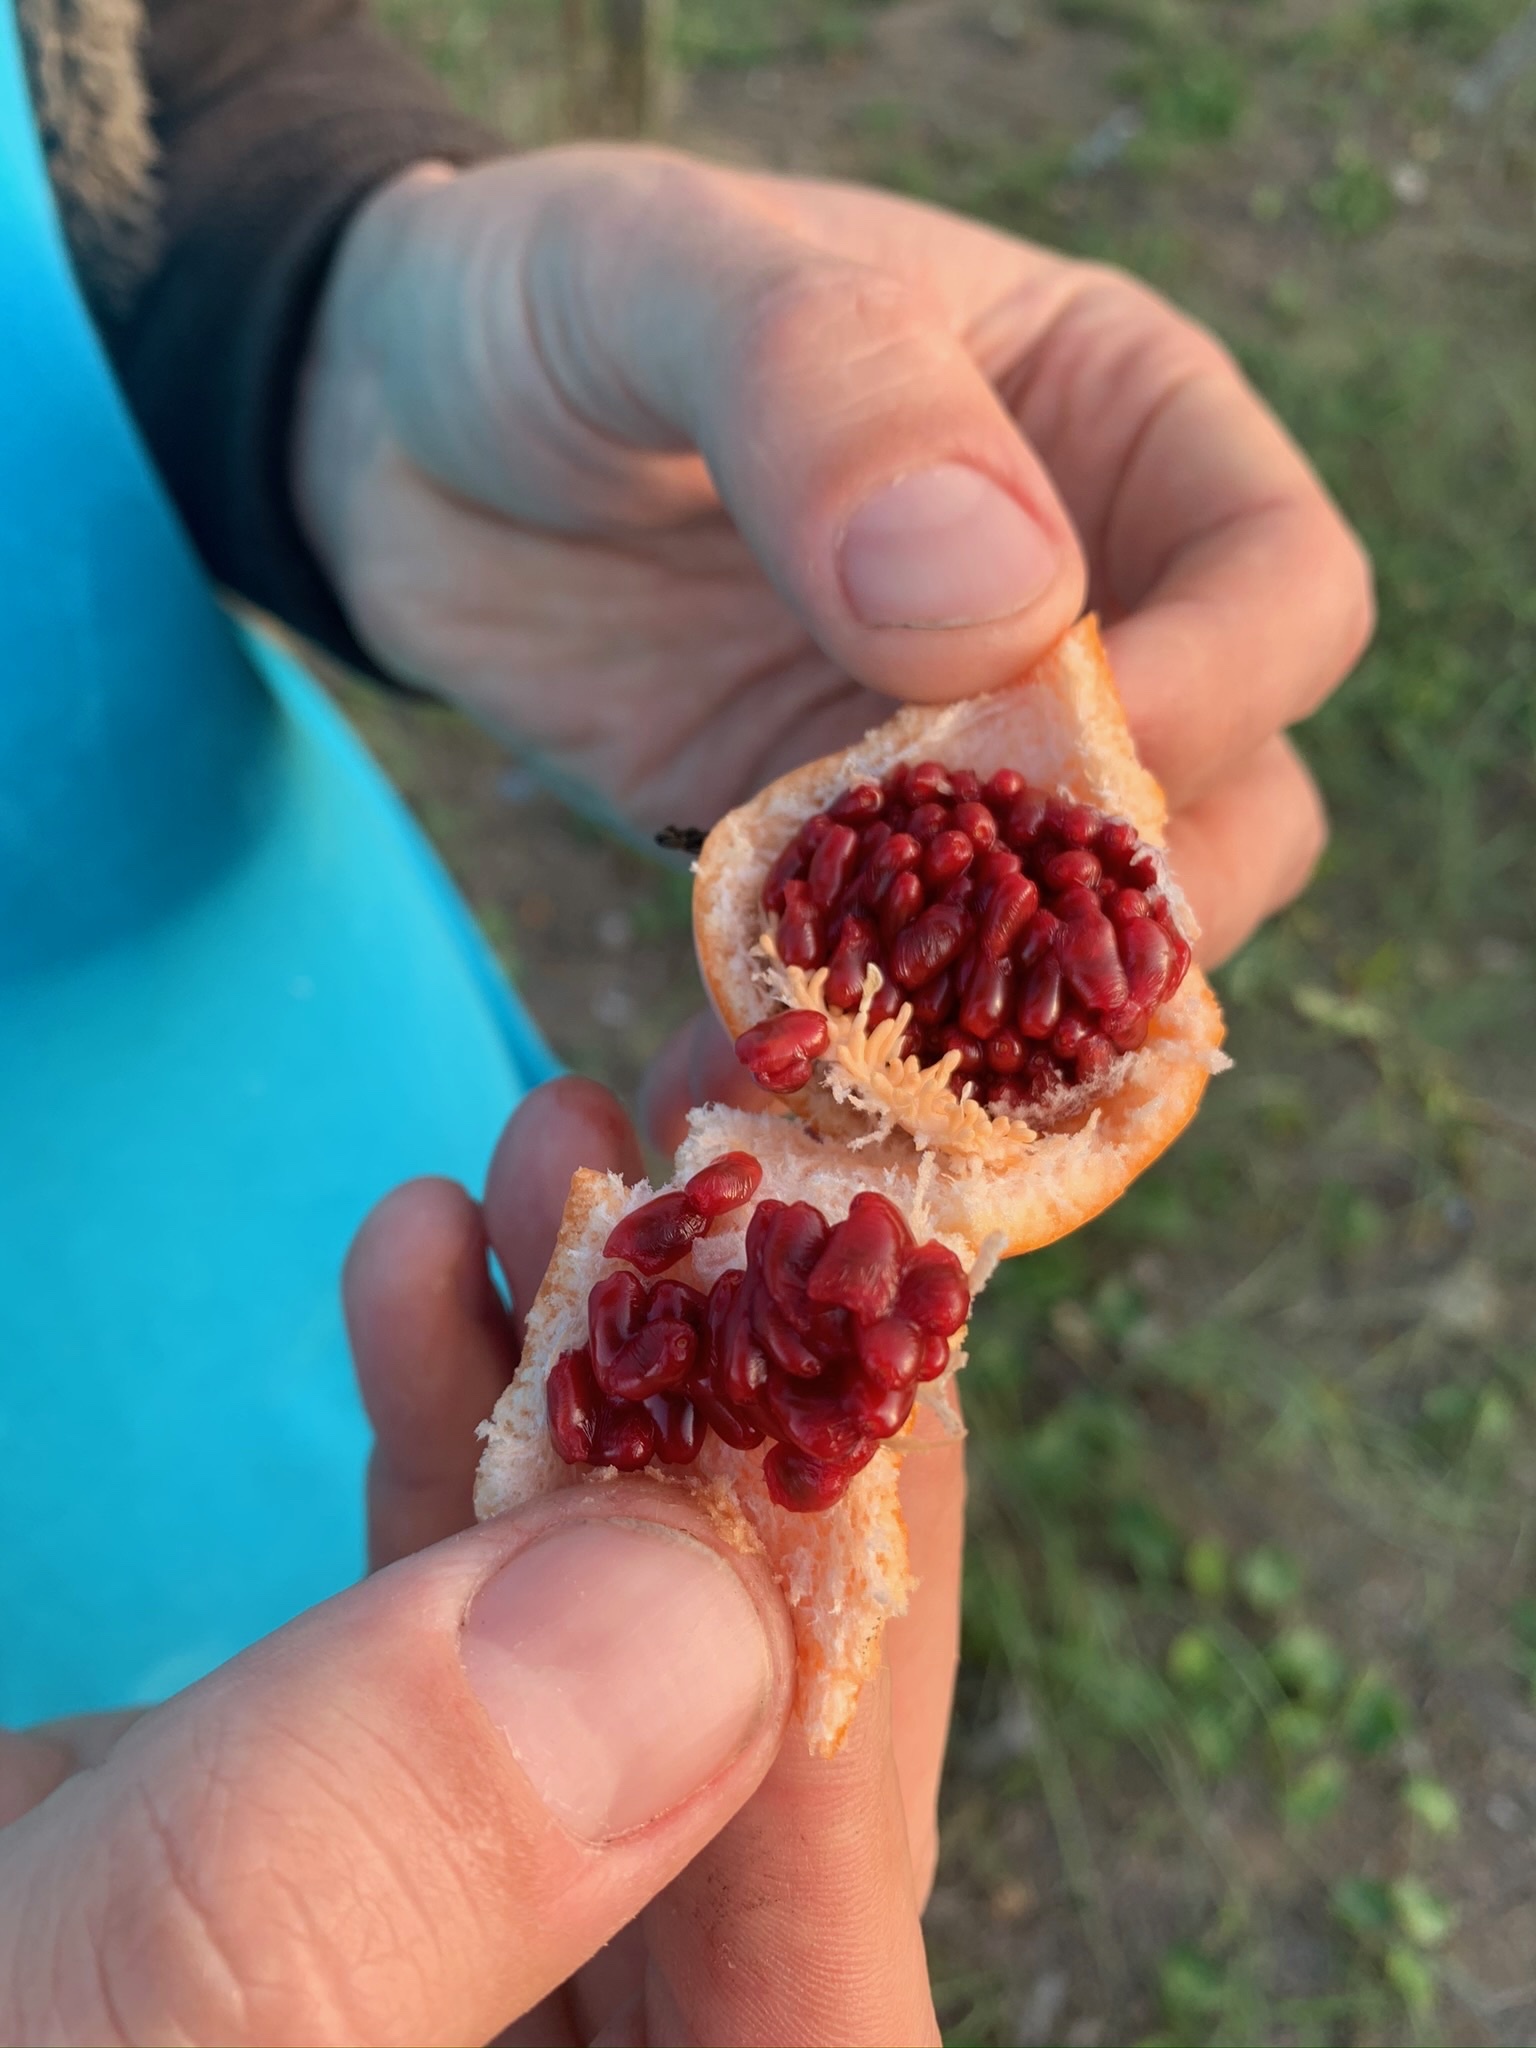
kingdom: Plantae
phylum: Tracheophyta
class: Magnoliopsida
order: Malpighiales
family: Passifloraceae
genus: Passiflora
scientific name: Passiflora caerulea
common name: Blue passionflower
